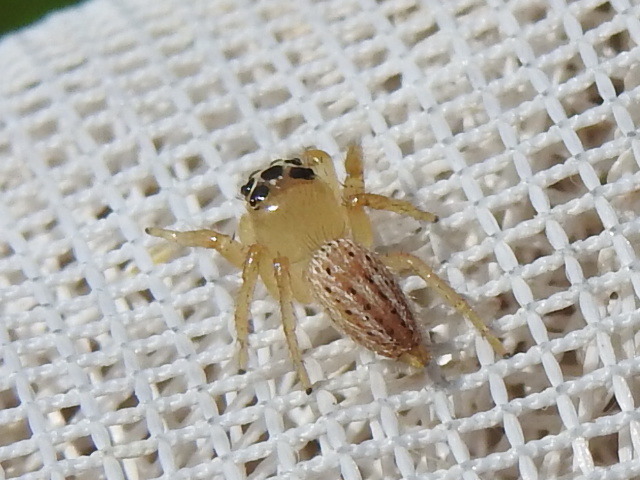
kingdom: Animalia
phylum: Arthropoda
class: Arachnida
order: Araneae
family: Salticidae
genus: Colonus
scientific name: Colonus sylvanus
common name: Jumping spiders
